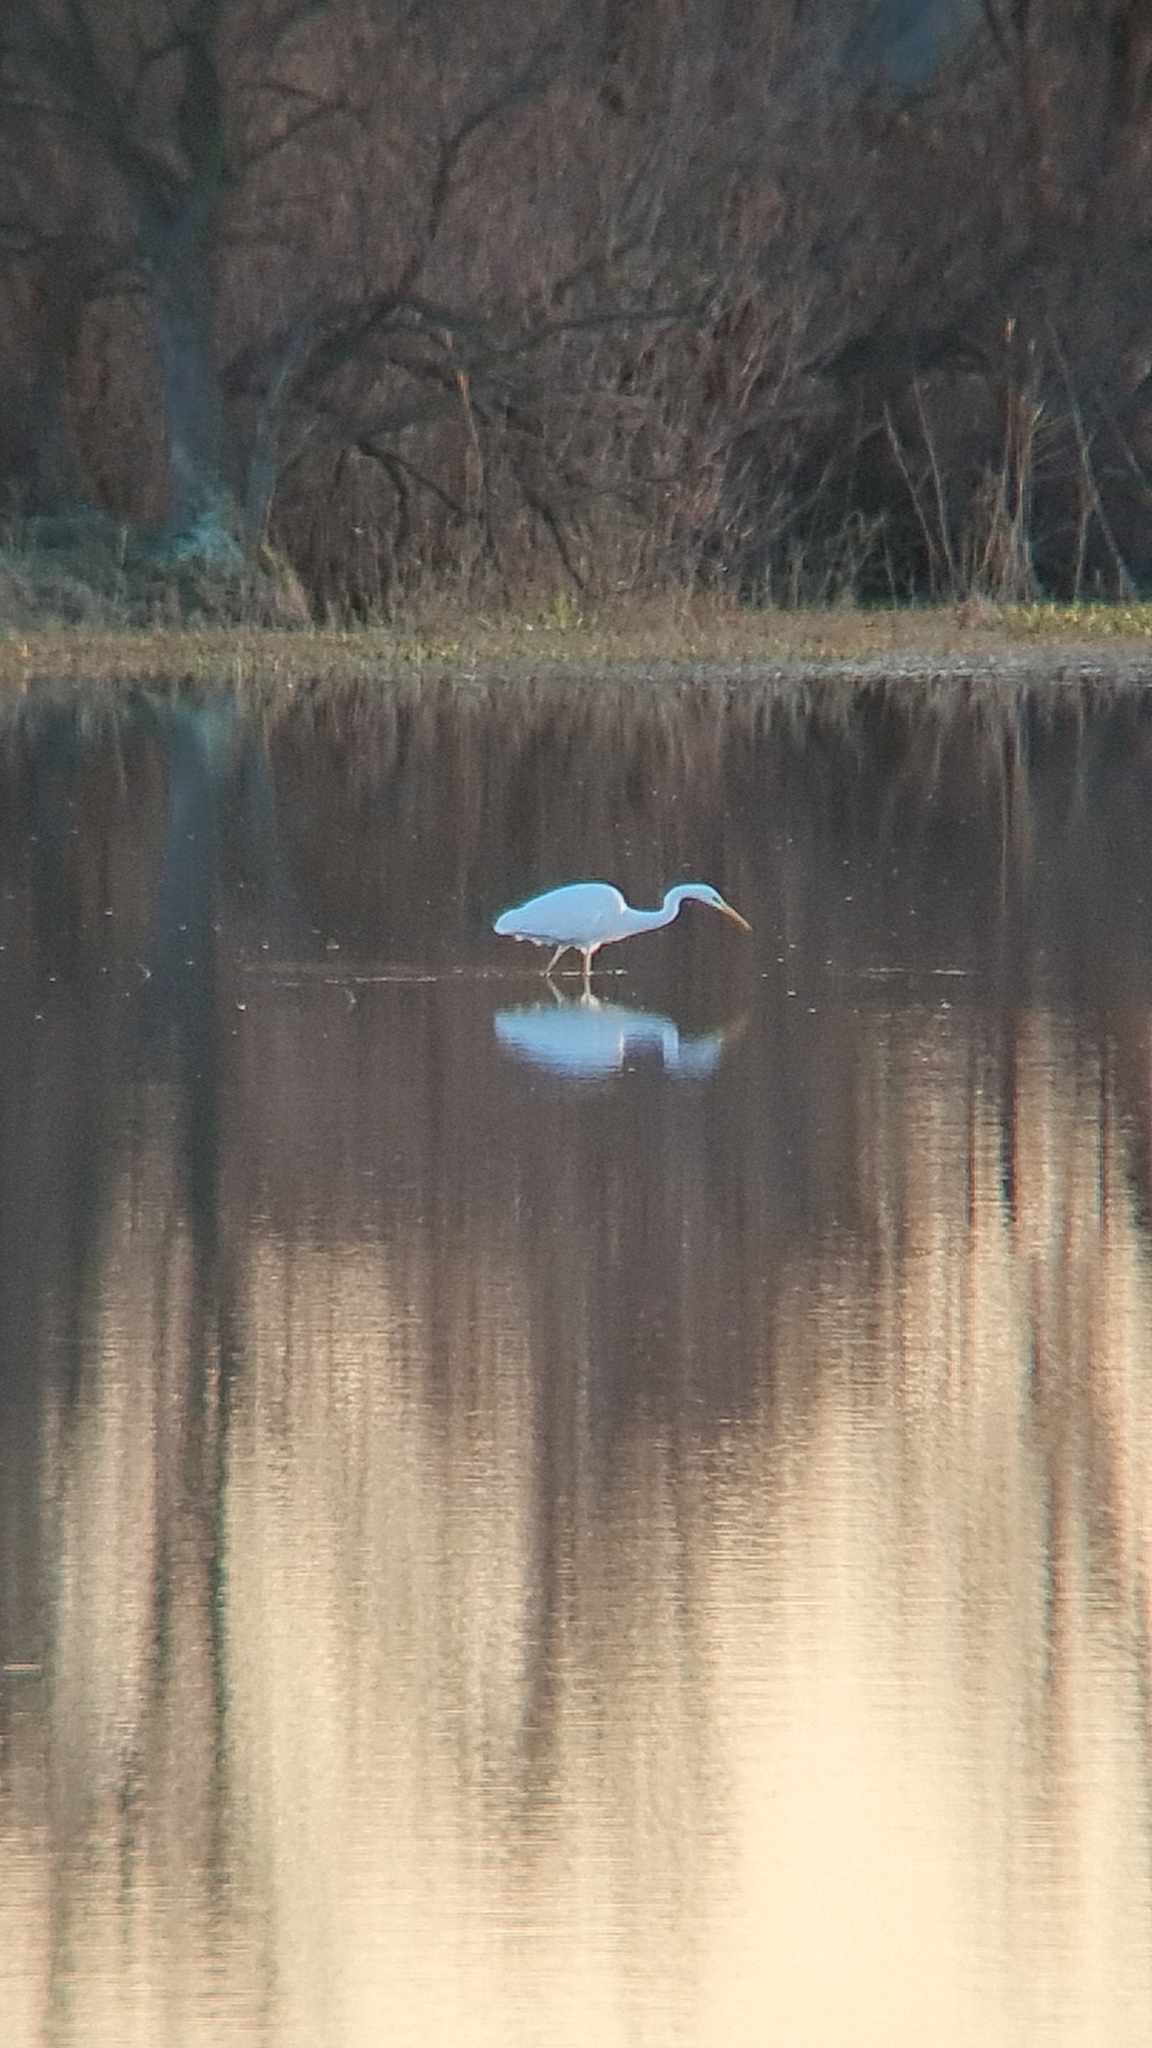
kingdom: Animalia
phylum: Chordata
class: Aves
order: Pelecaniformes
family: Ardeidae
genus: Ardea
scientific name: Ardea alba
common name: Great egret
